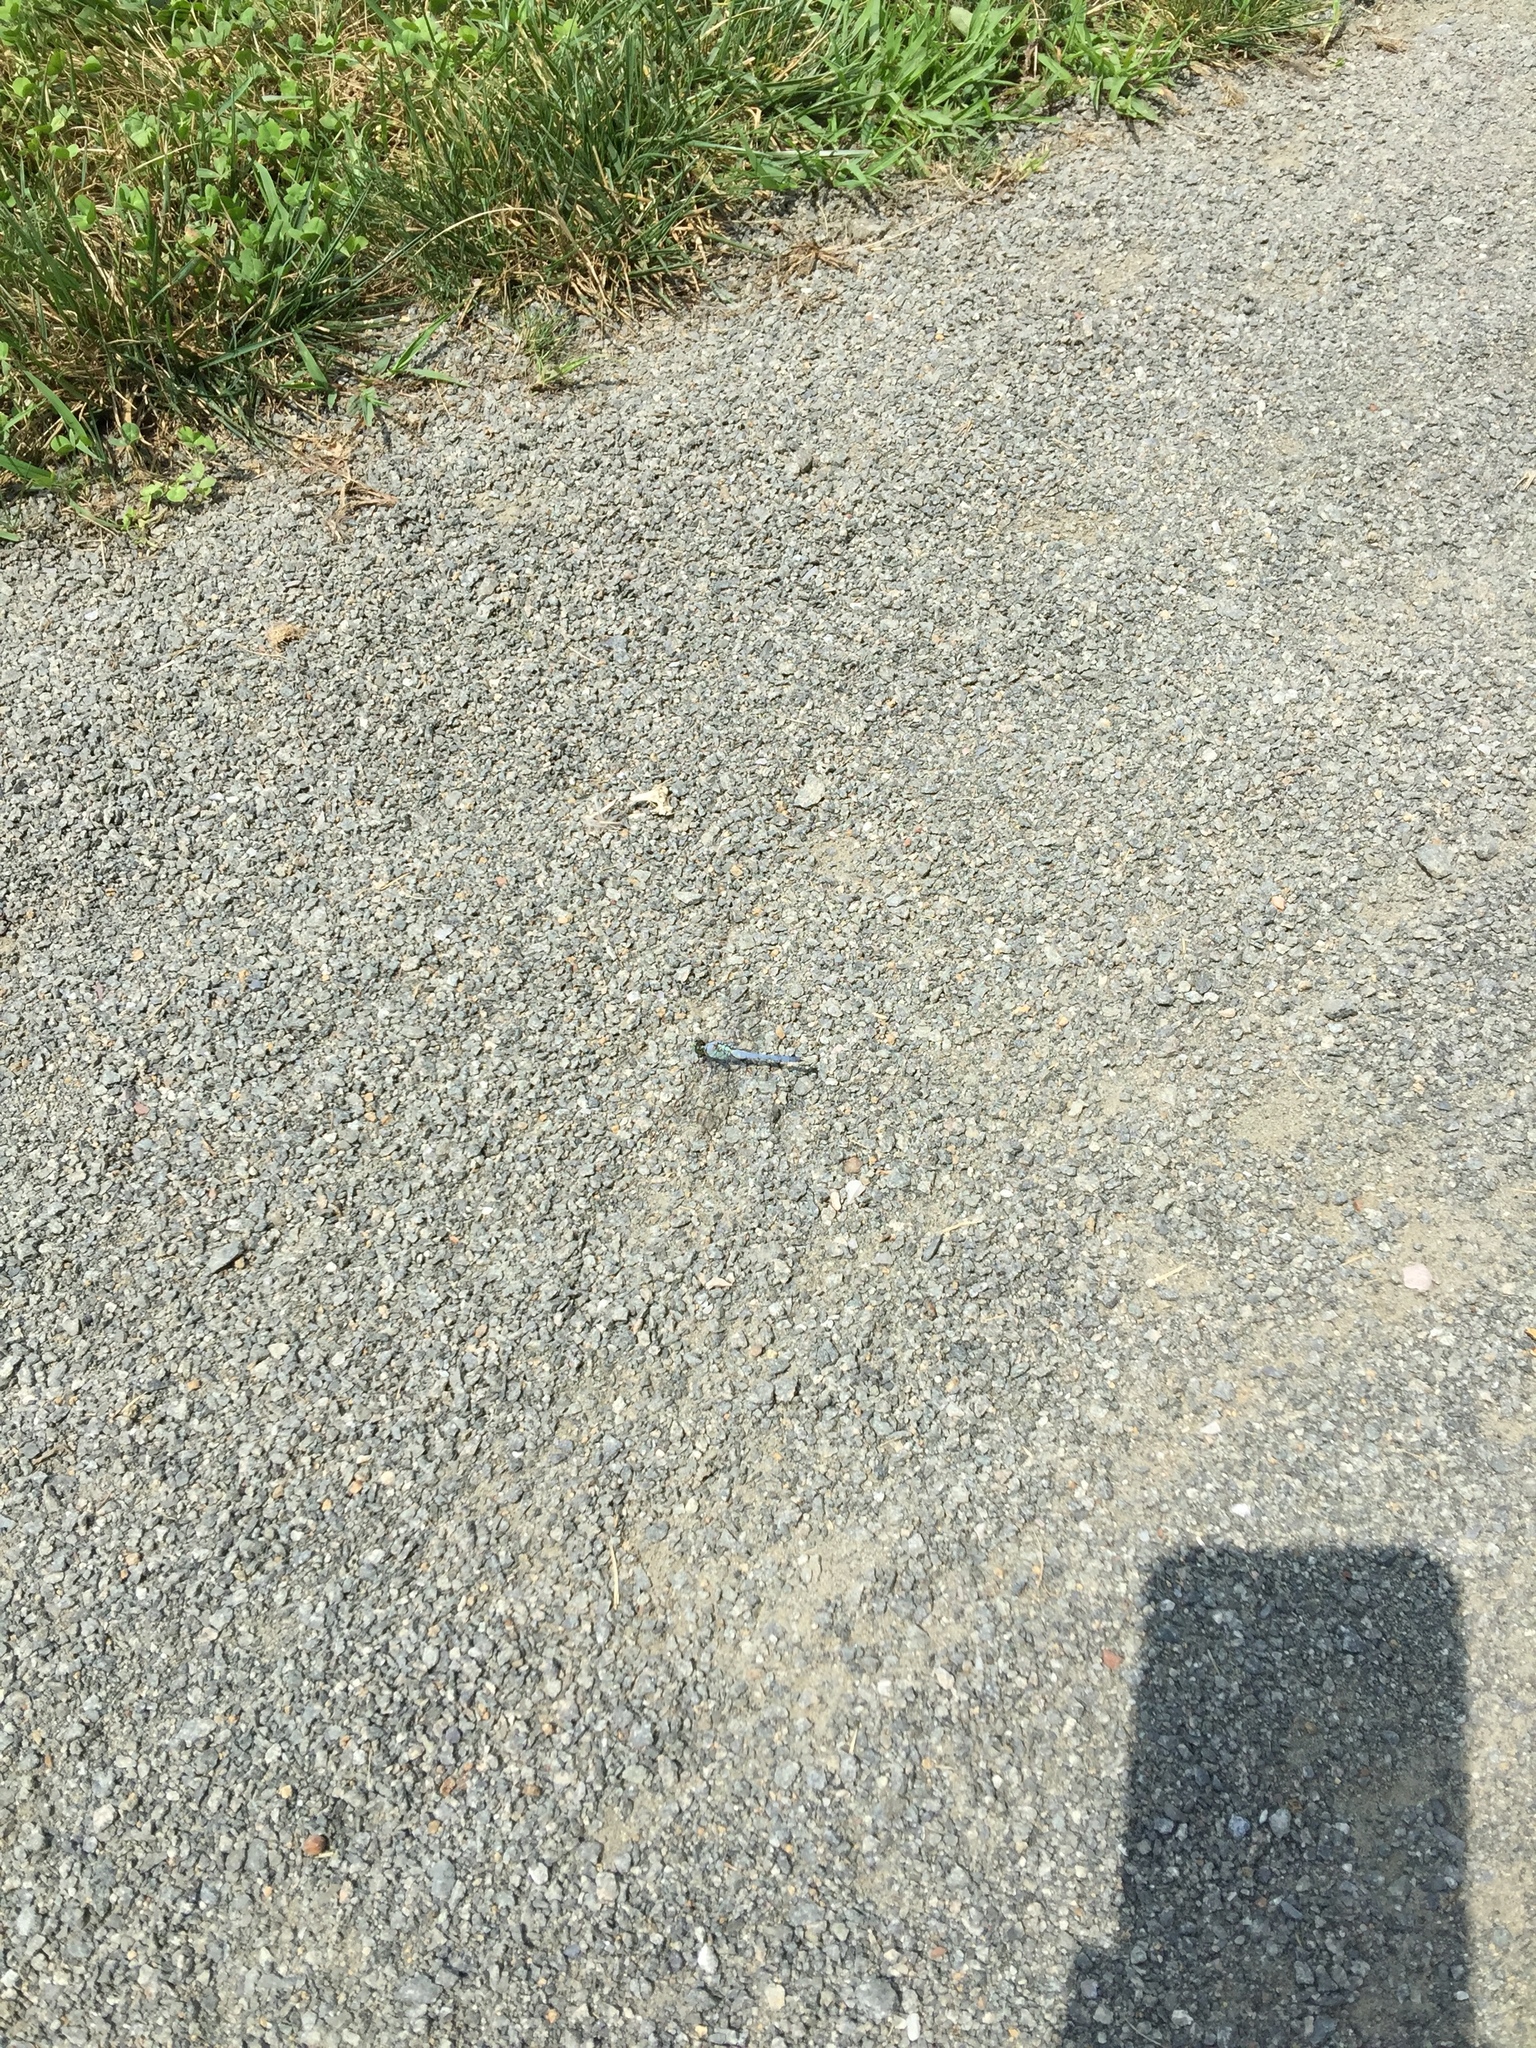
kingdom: Animalia
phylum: Arthropoda
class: Insecta
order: Odonata
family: Libellulidae
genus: Erythemis
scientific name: Erythemis simplicicollis
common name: Eastern pondhawk
